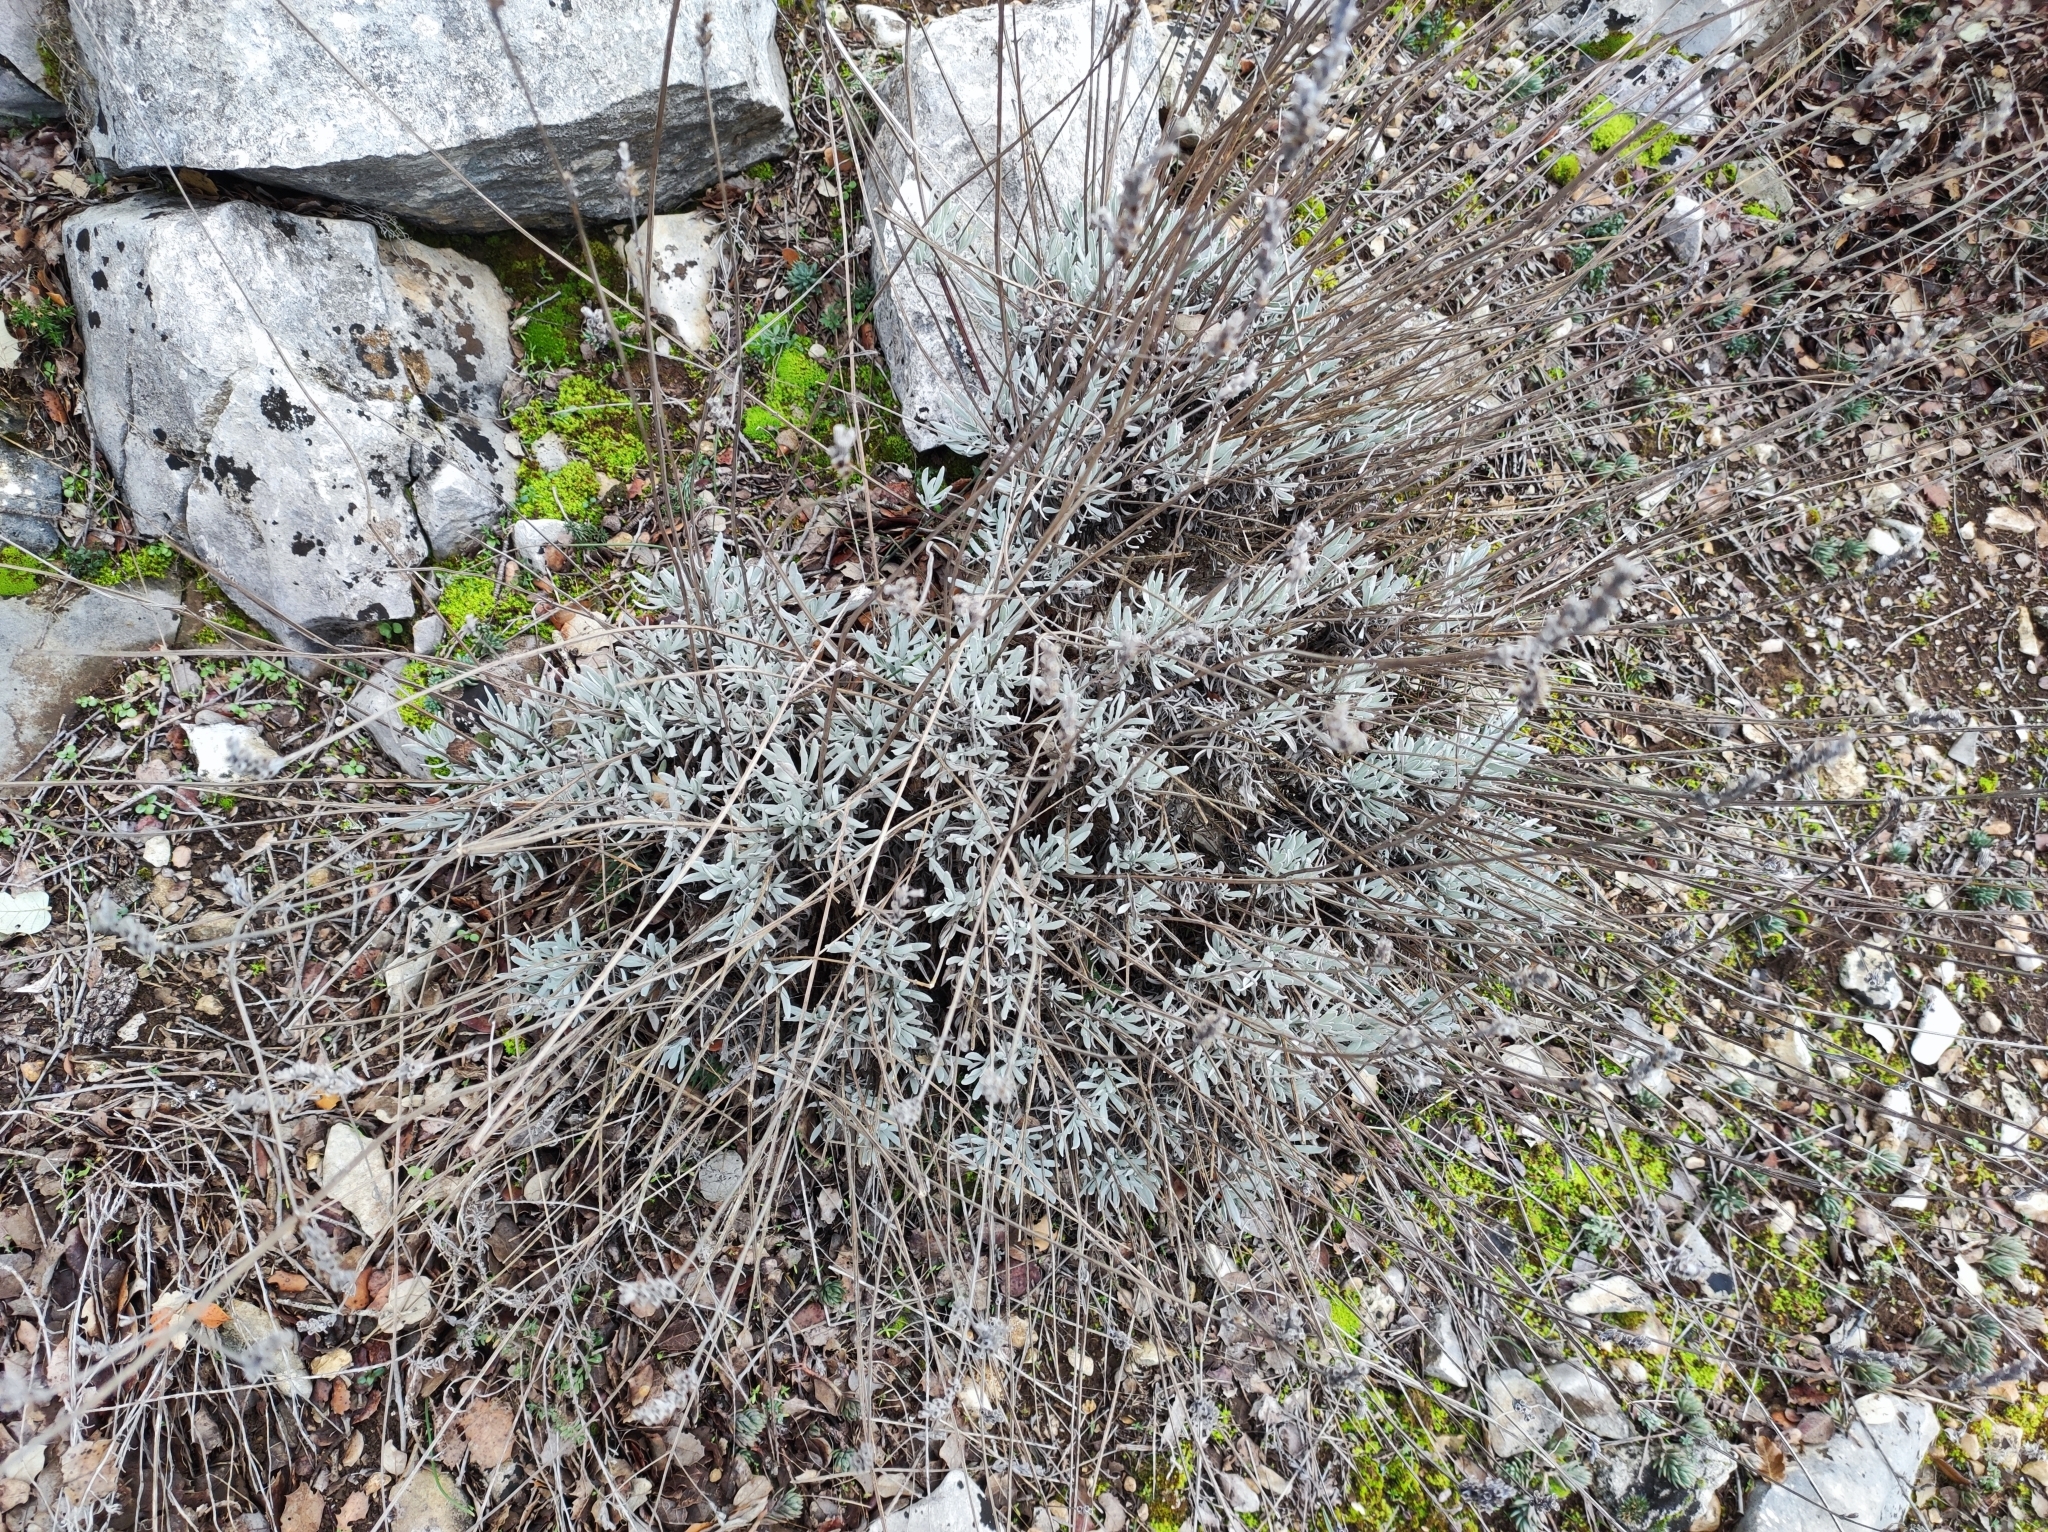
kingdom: Plantae
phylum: Tracheophyta
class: Magnoliopsida
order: Lamiales
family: Lamiaceae
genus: Lavandula
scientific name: Lavandula latifolia
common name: Spike lavendar
